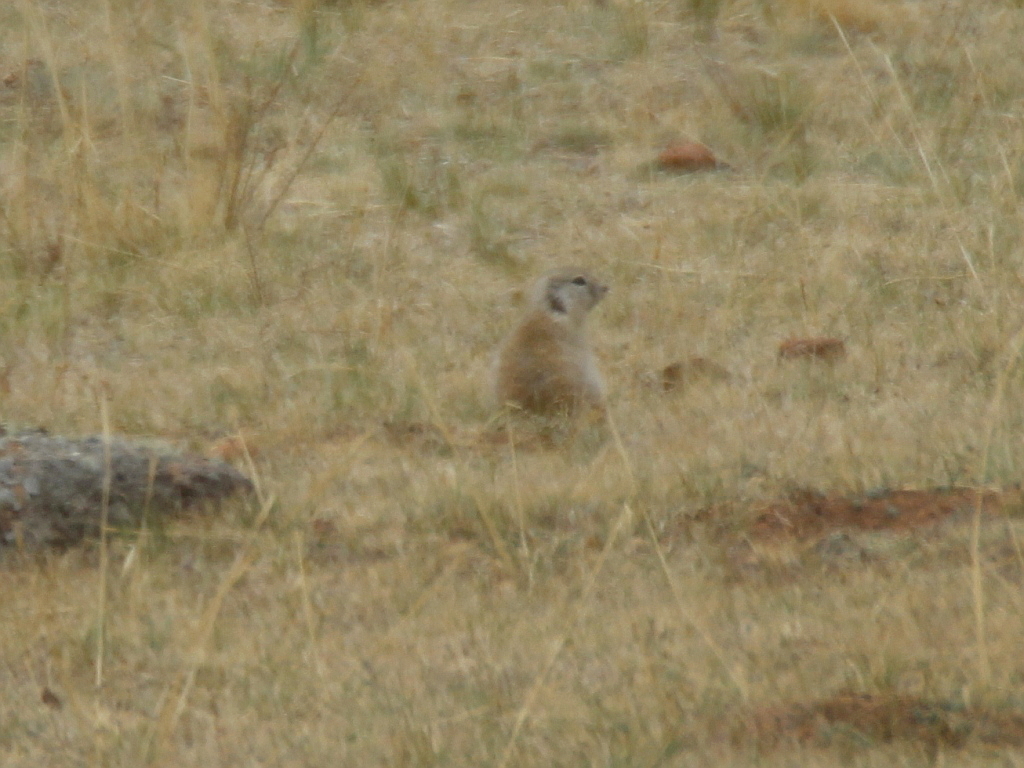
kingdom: Animalia
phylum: Chordata
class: Mammalia
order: Rodentia
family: Sciuridae
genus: Urocitellus
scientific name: Urocitellus undulatus
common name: Long-tailed ground squirrel
